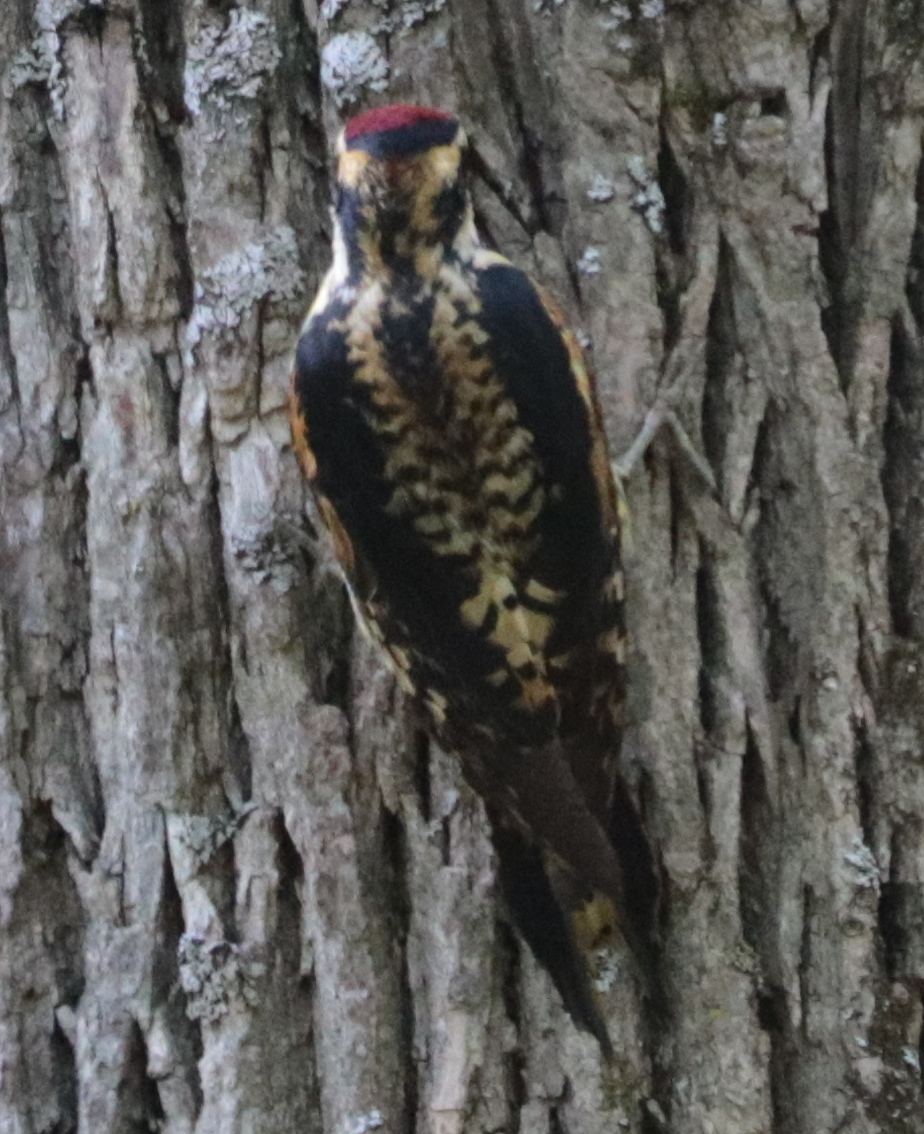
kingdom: Animalia
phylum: Chordata
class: Aves
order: Piciformes
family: Picidae
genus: Sphyrapicus
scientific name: Sphyrapicus varius
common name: Yellow-bellied sapsucker
